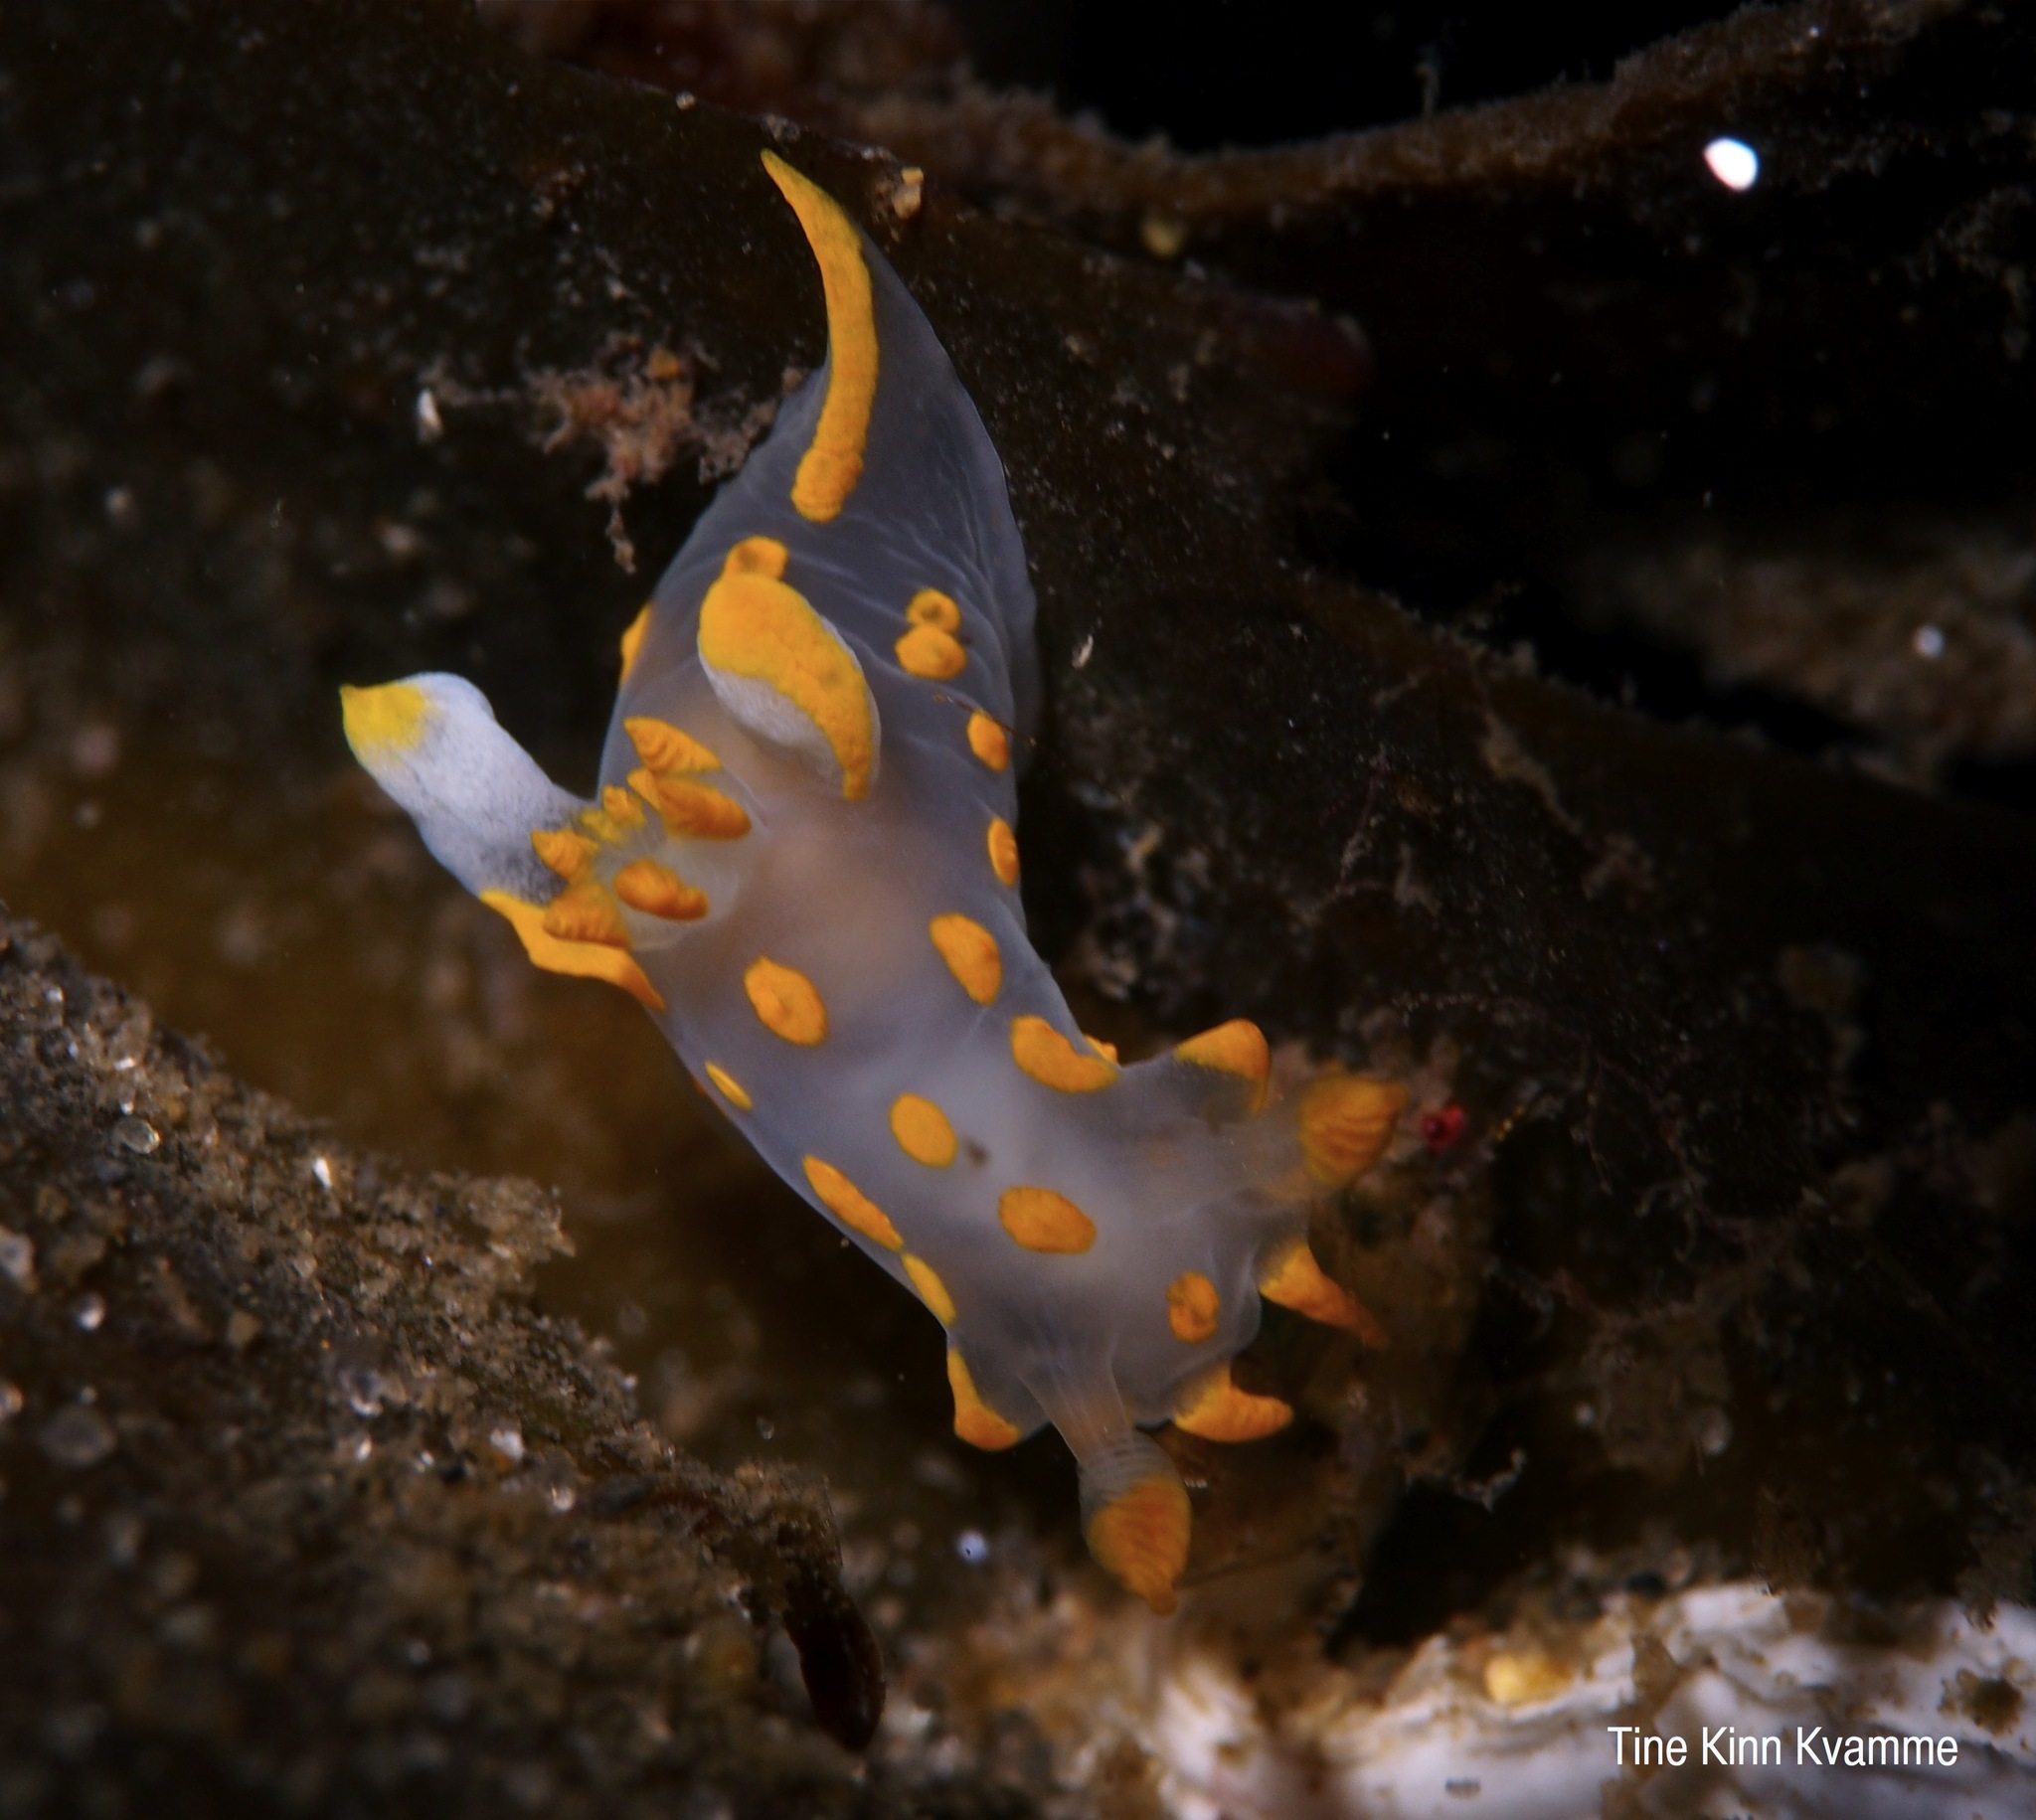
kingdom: Animalia
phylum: Mollusca
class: Gastropoda
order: Nudibranchia
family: Polyceridae
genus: Polycera
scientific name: Polycera quadrilineata
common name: Four-striped polycera
